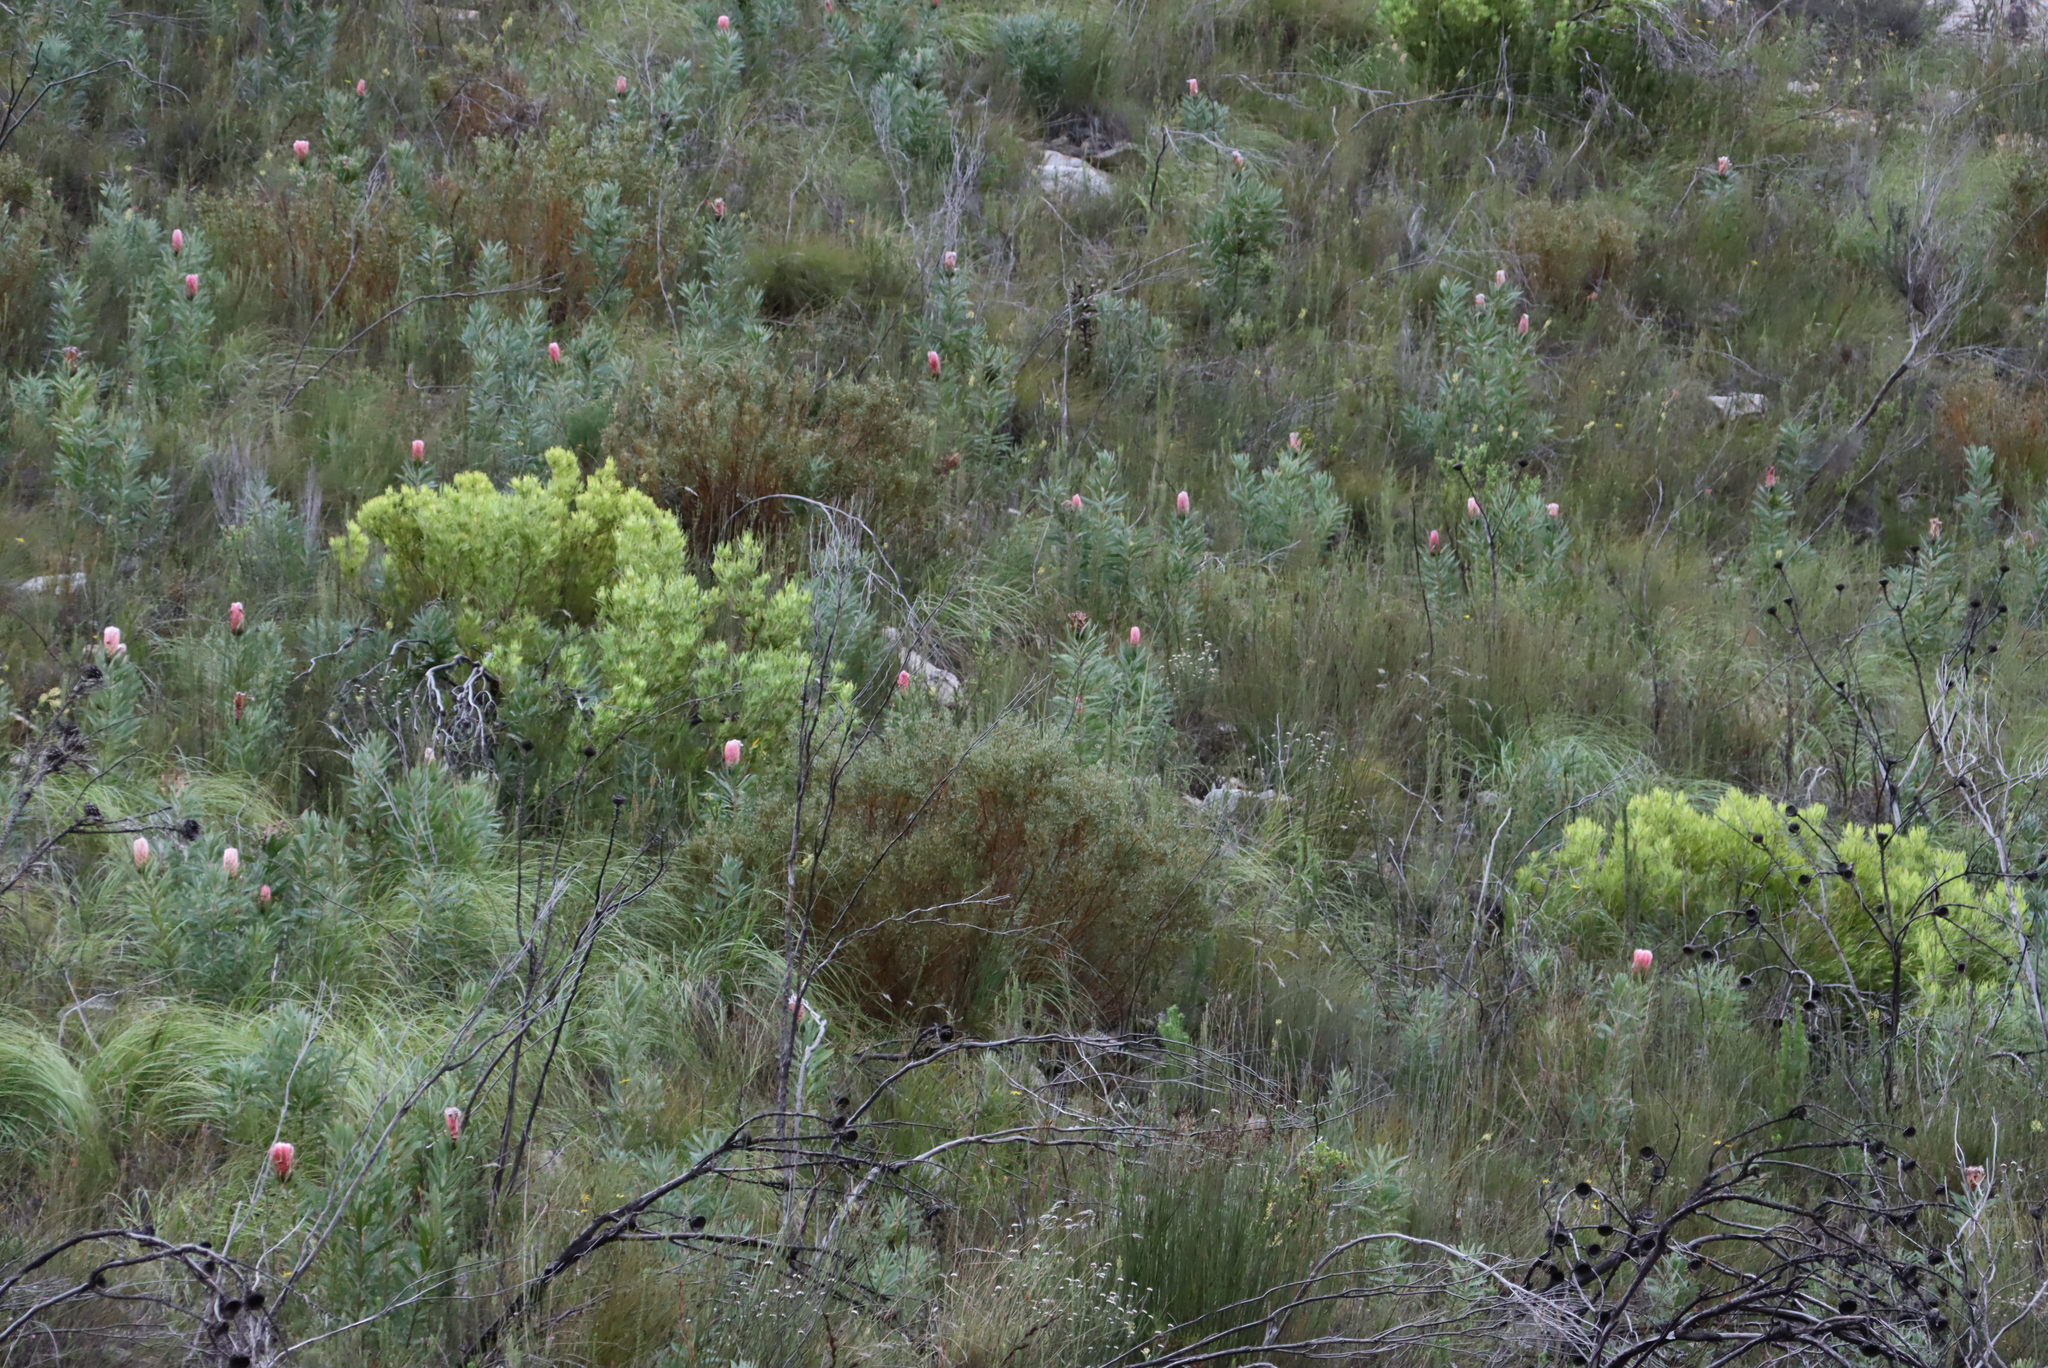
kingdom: Plantae
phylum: Tracheophyta
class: Magnoliopsida
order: Proteales
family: Proteaceae
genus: Leucadendron
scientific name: Leucadendron salignum
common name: Common sunshine conebush
